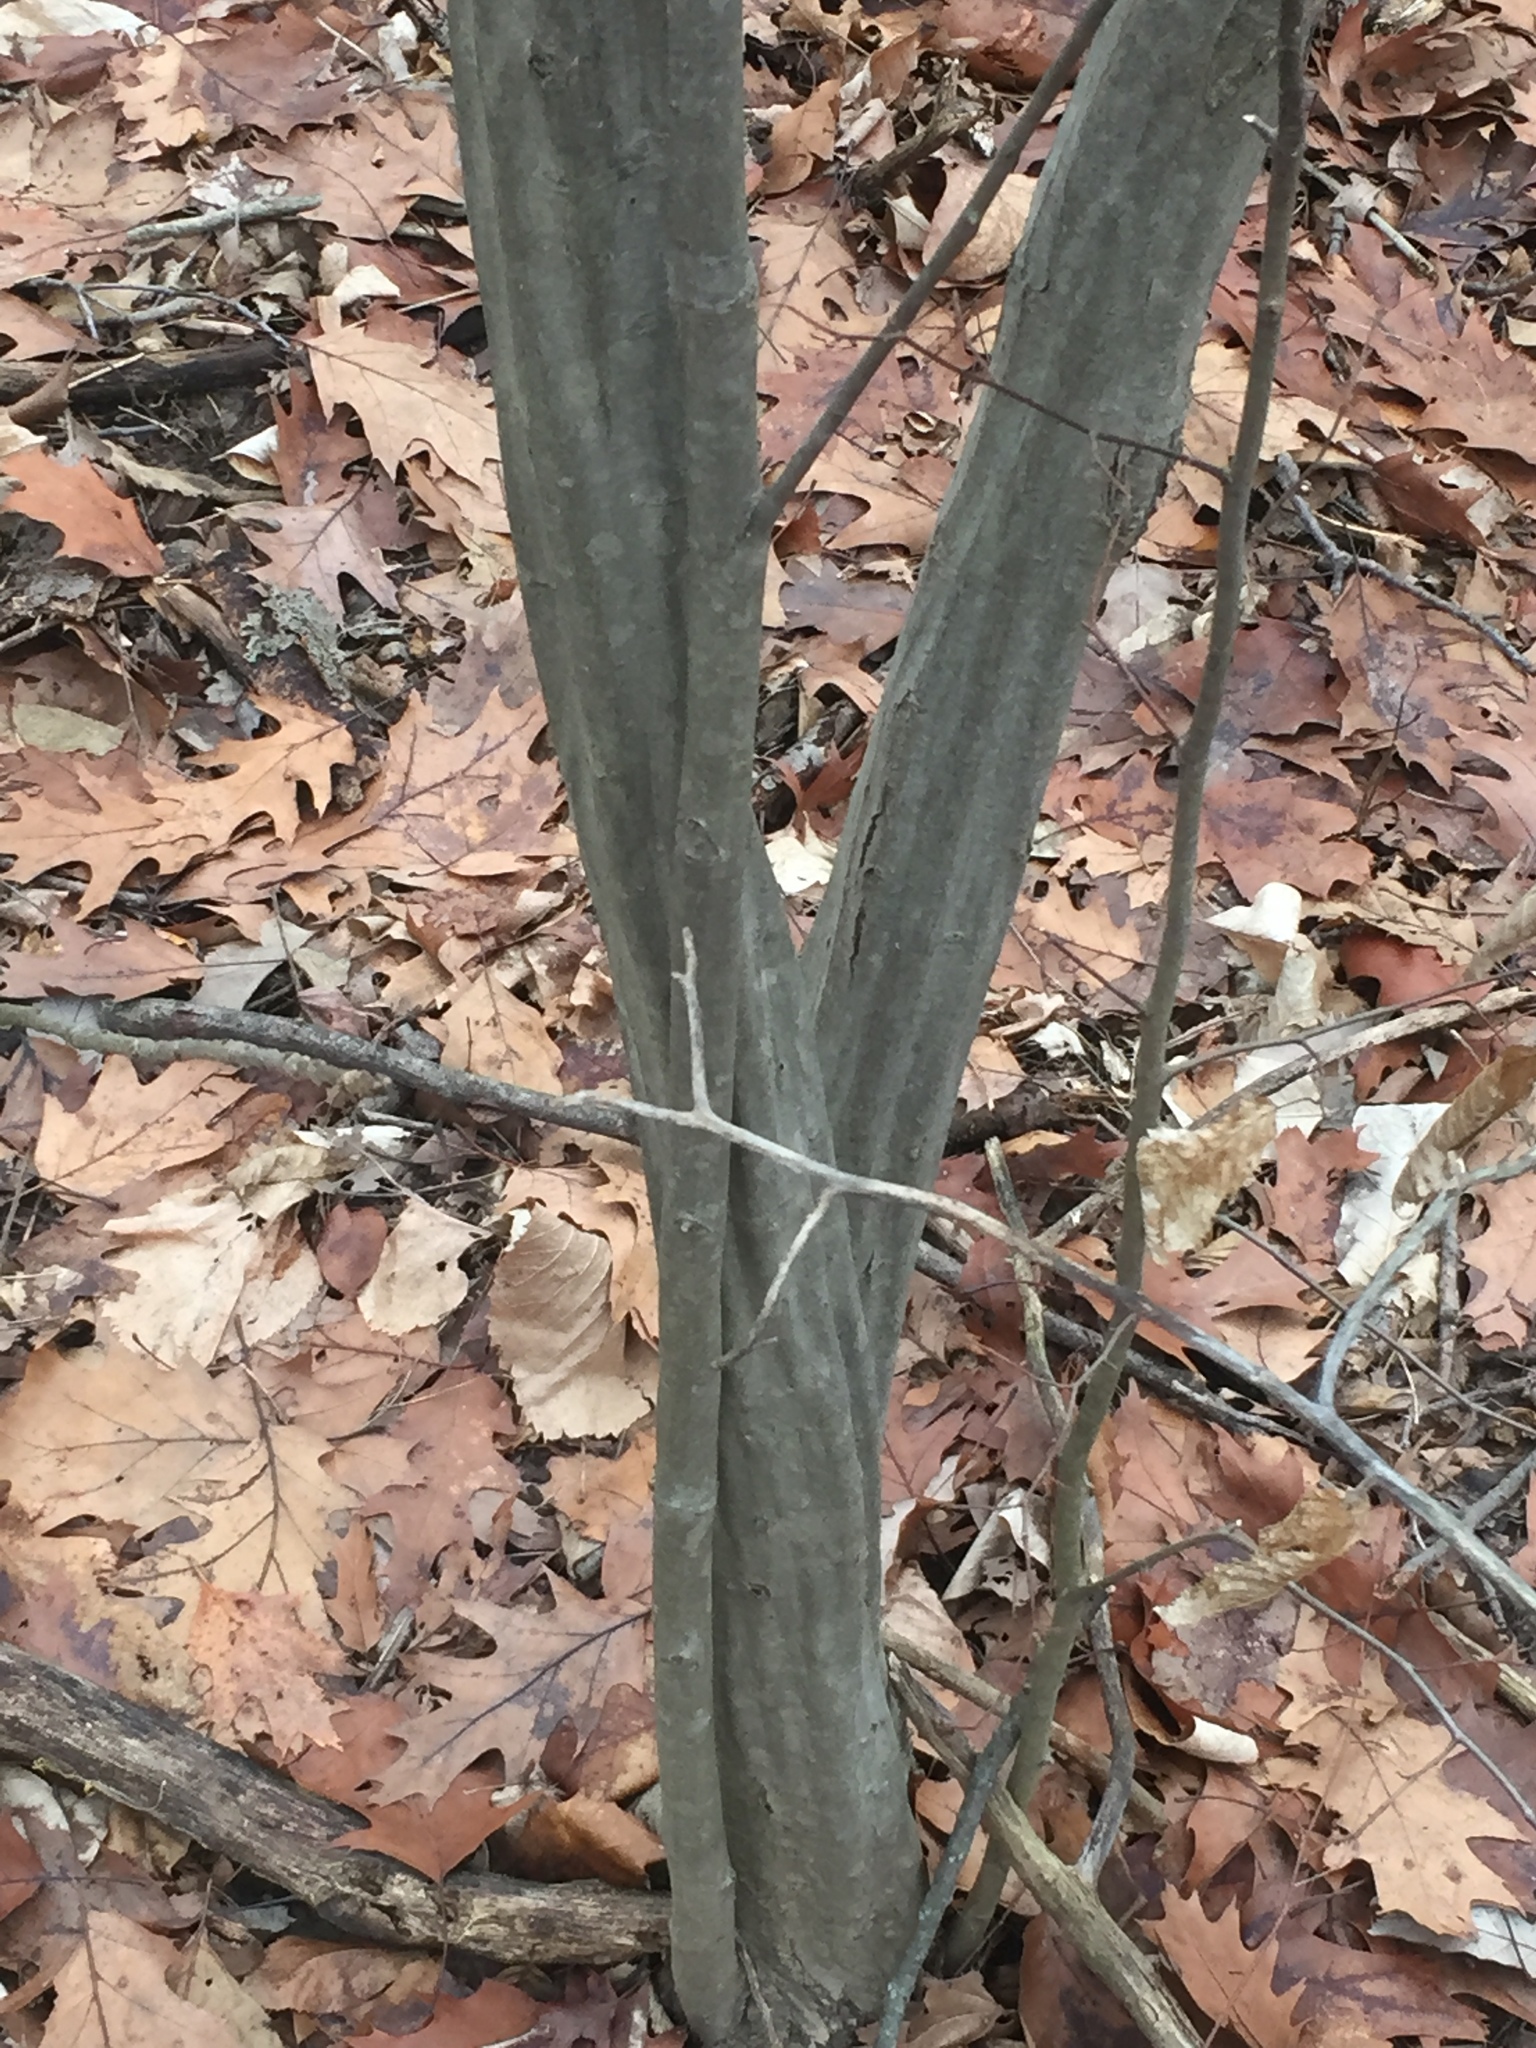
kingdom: Plantae
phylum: Tracheophyta
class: Magnoliopsida
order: Fagales
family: Betulaceae
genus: Carpinus
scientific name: Carpinus caroliniana
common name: American hornbeam
